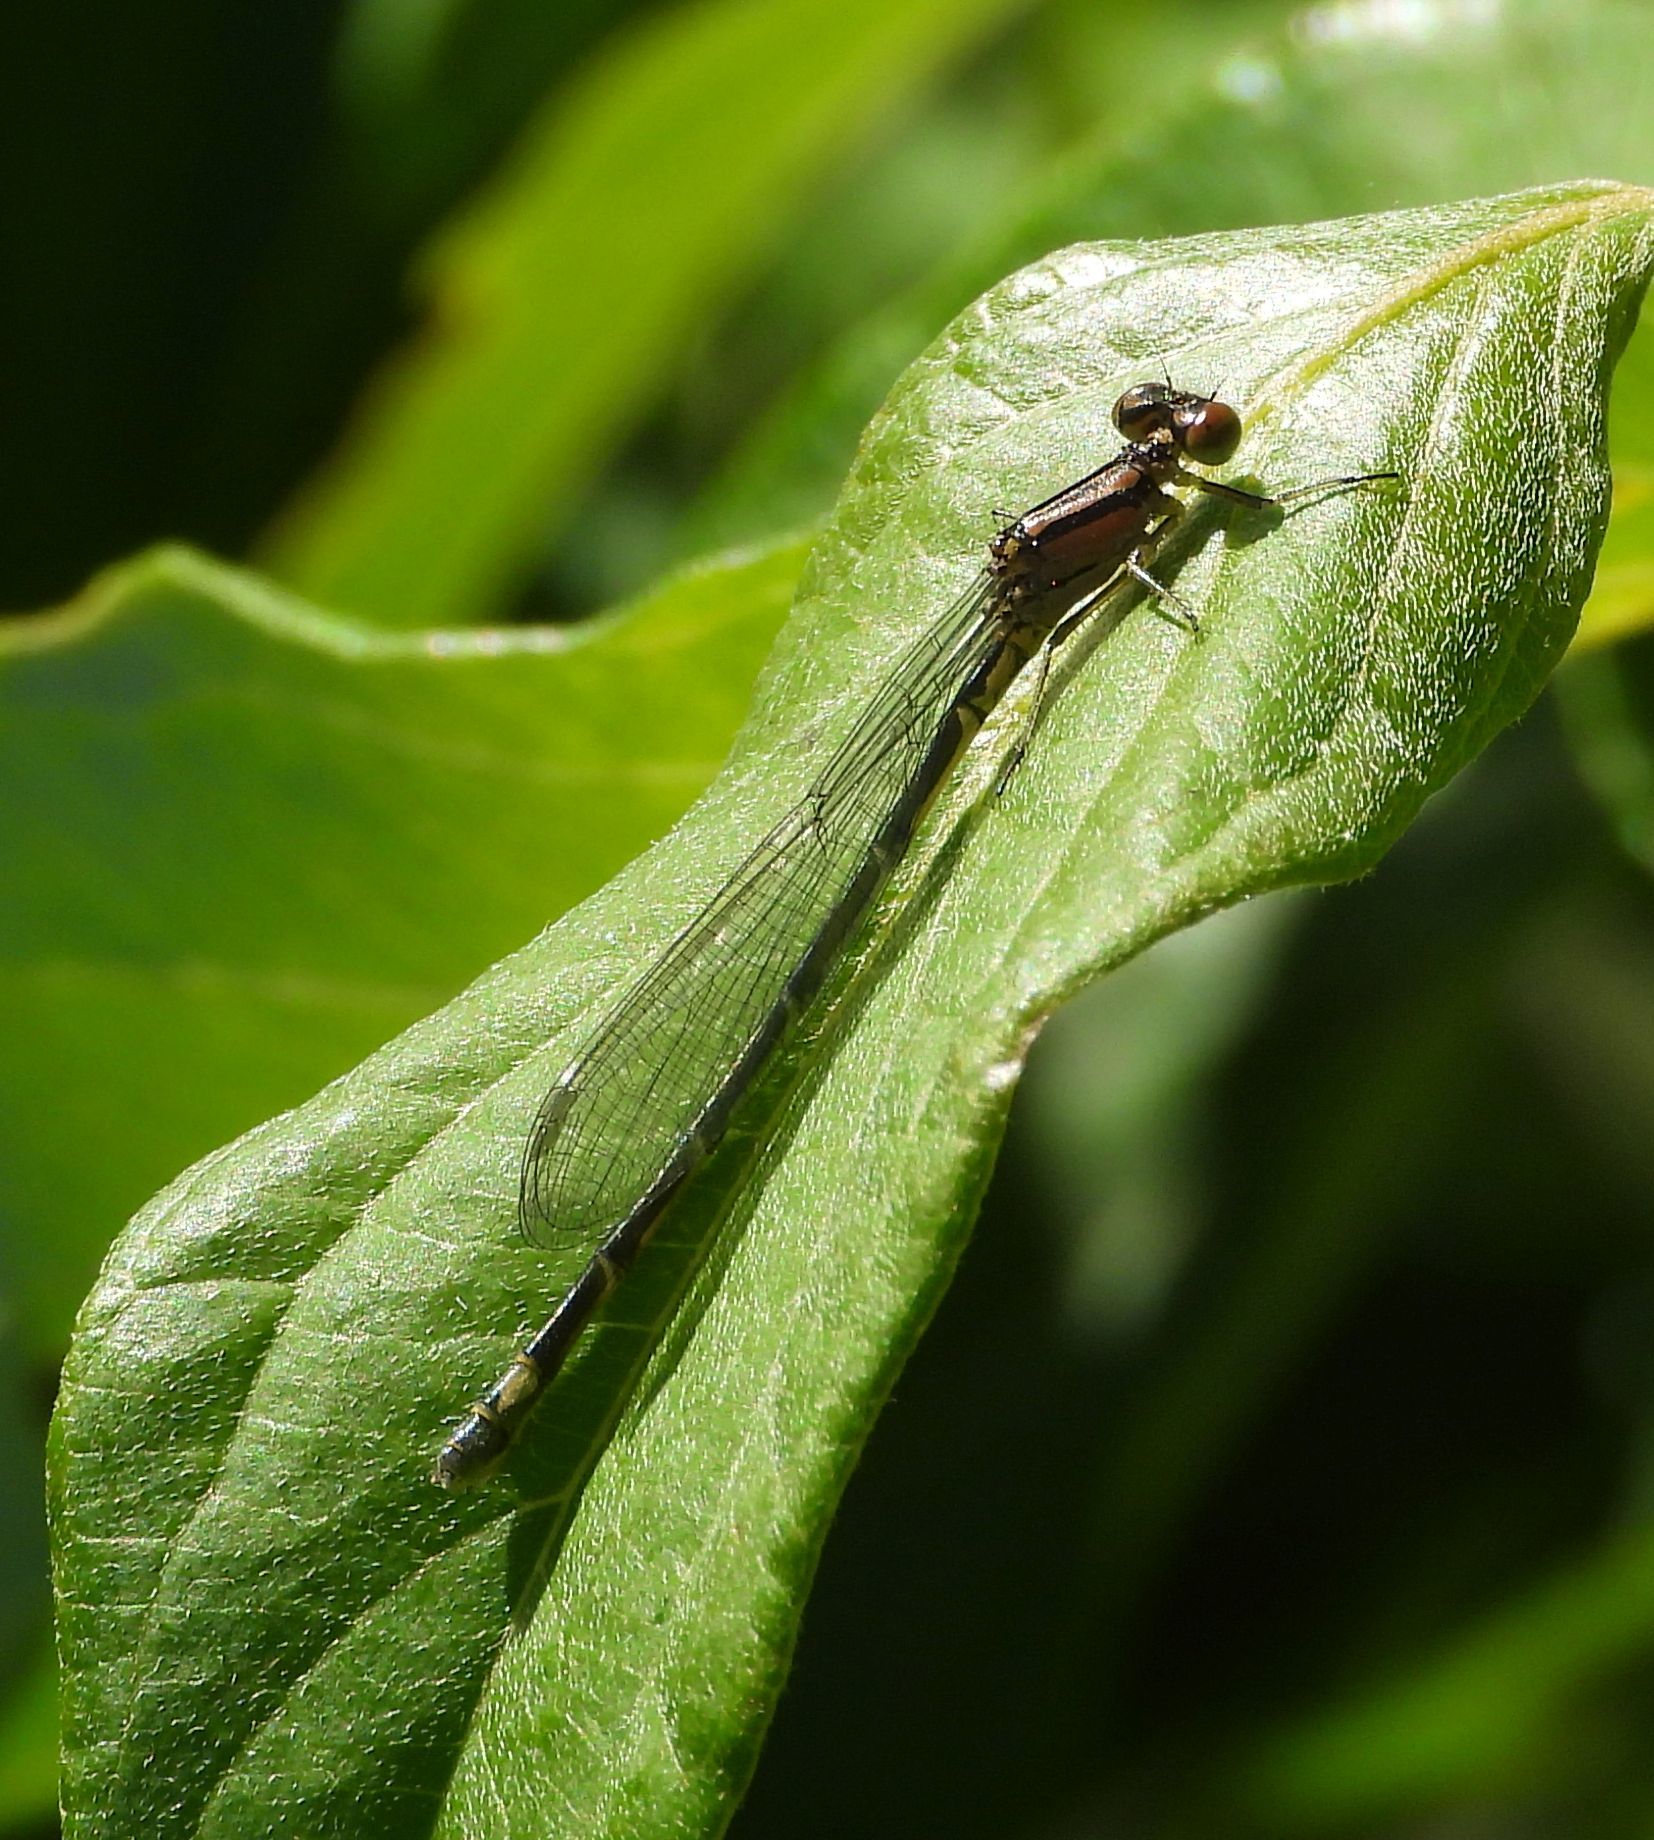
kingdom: Animalia
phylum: Arthropoda
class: Insecta
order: Odonata
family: Coenagrionidae
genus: Enallagma
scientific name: Enallagma geminatum
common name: Skimming bluet
